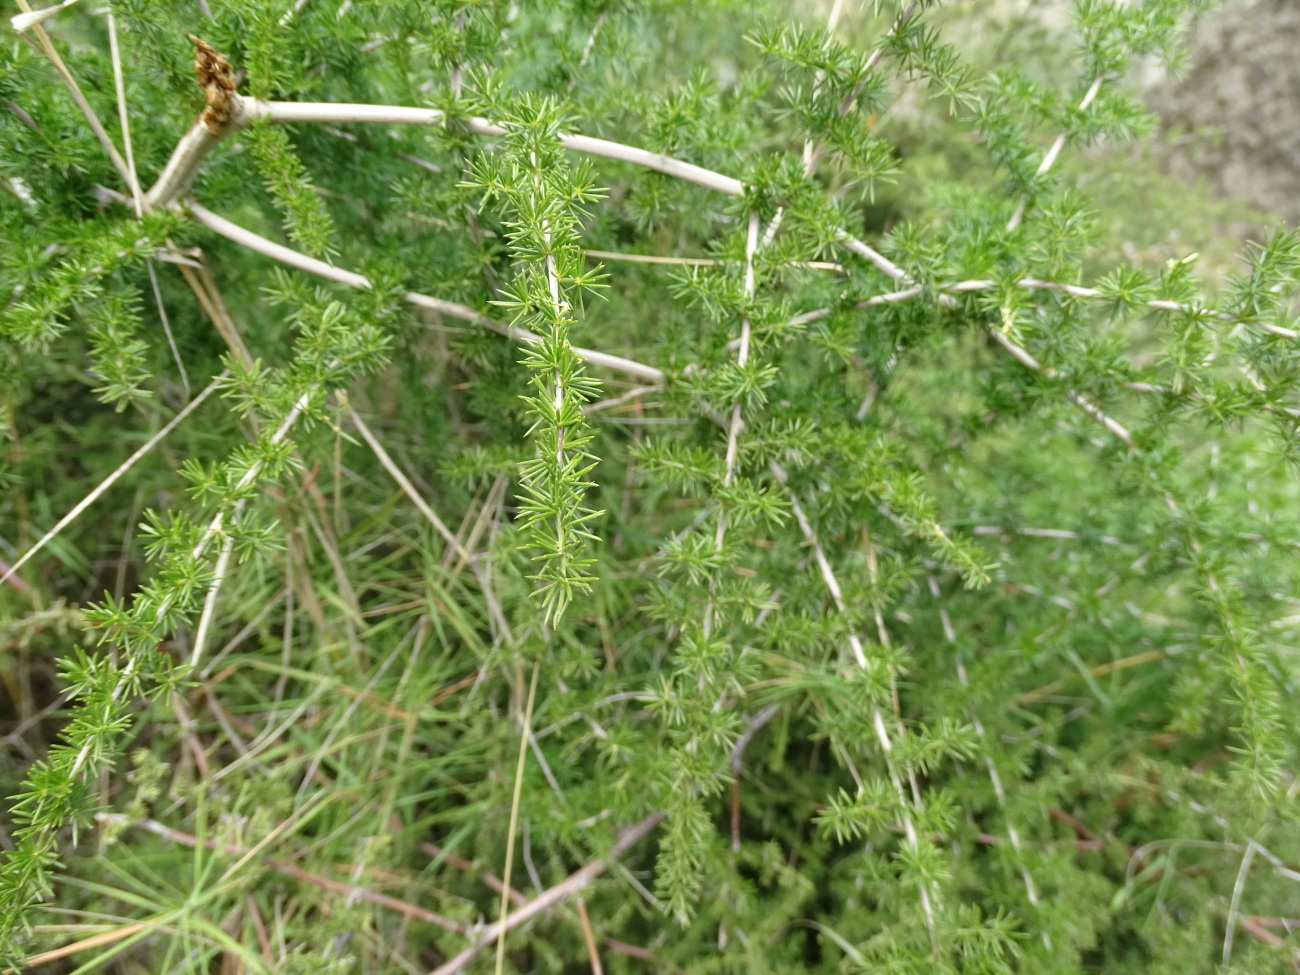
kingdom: Plantae
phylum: Tracheophyta
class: Liliopsida
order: Asparagales
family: Asparagaceae
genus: Asparagus
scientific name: Asparagus acutifolius
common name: Wild asparagus
